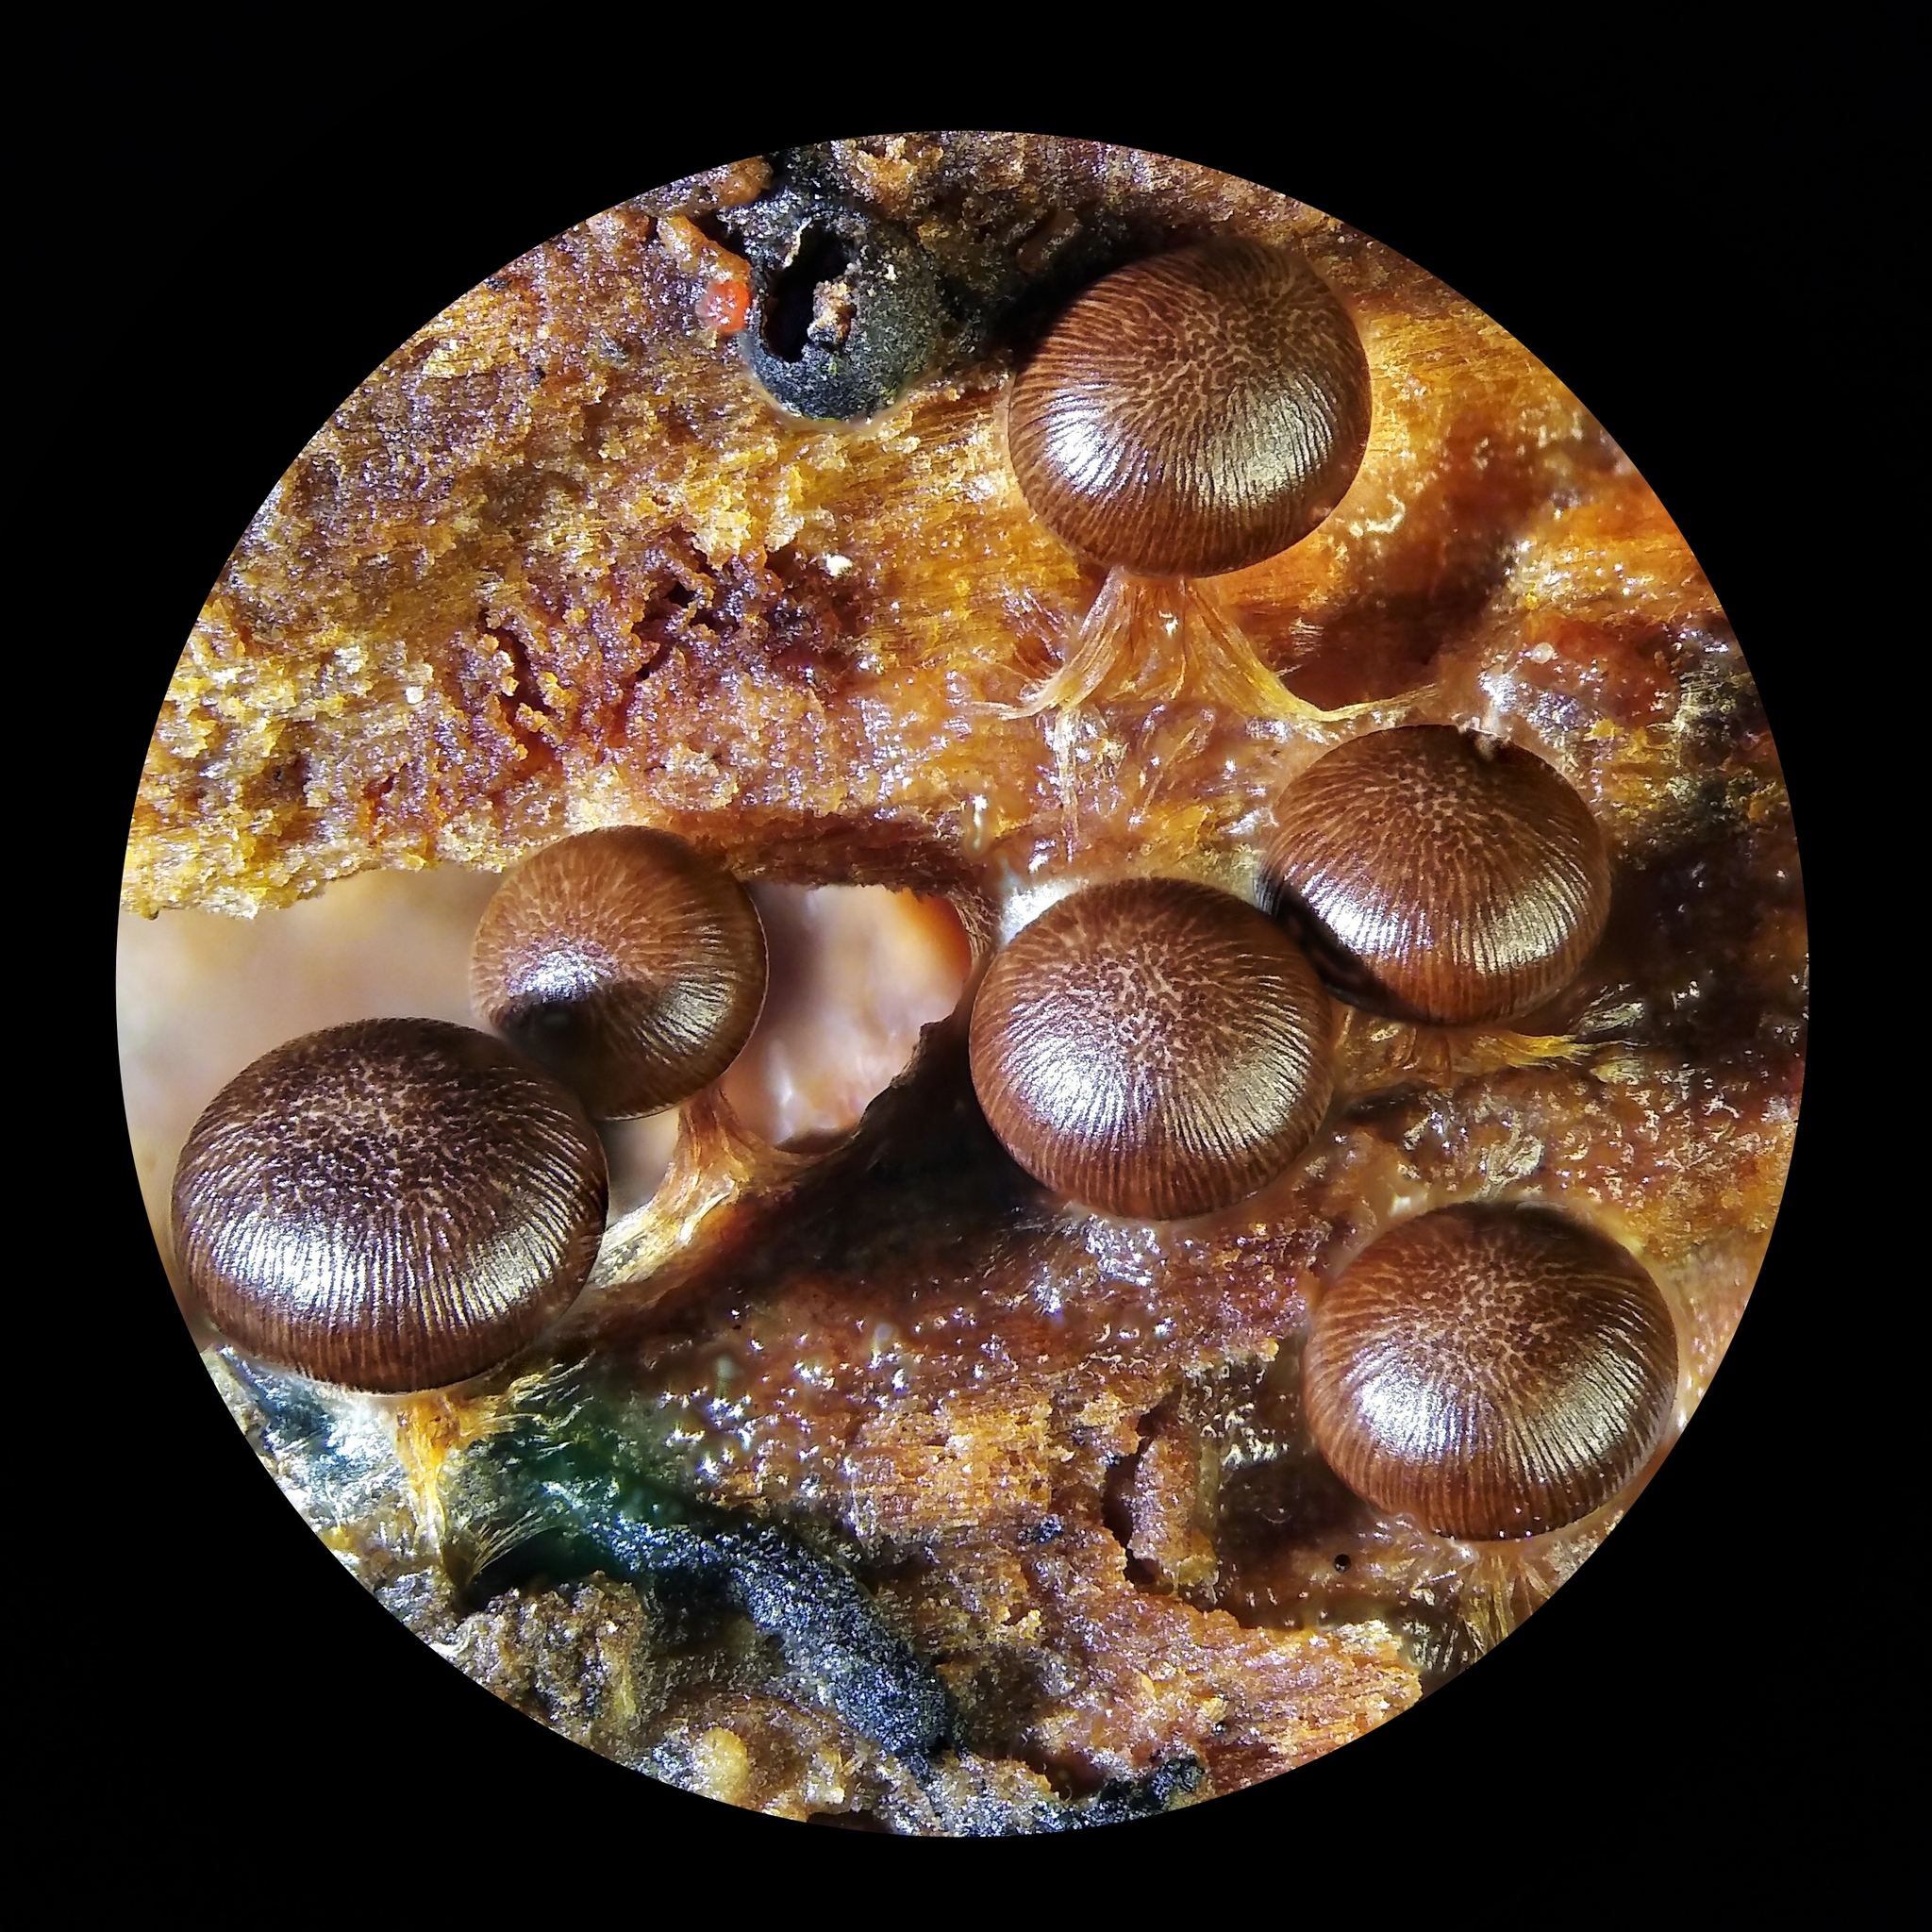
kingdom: Protozoa
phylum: Mycetozoa
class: Myxomycetes
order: Physarales
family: Didymiaceae
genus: Diderma
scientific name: Diderma subasteroides
